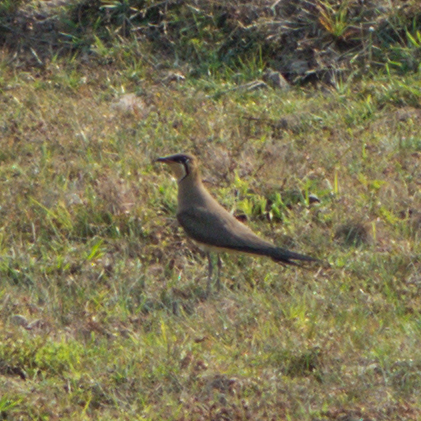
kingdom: Animalia
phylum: Chordata
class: Aves
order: Charadriiformes
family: Glareolidae
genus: Glareola
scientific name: Glareola maldivarum
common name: Oriental pratincole
